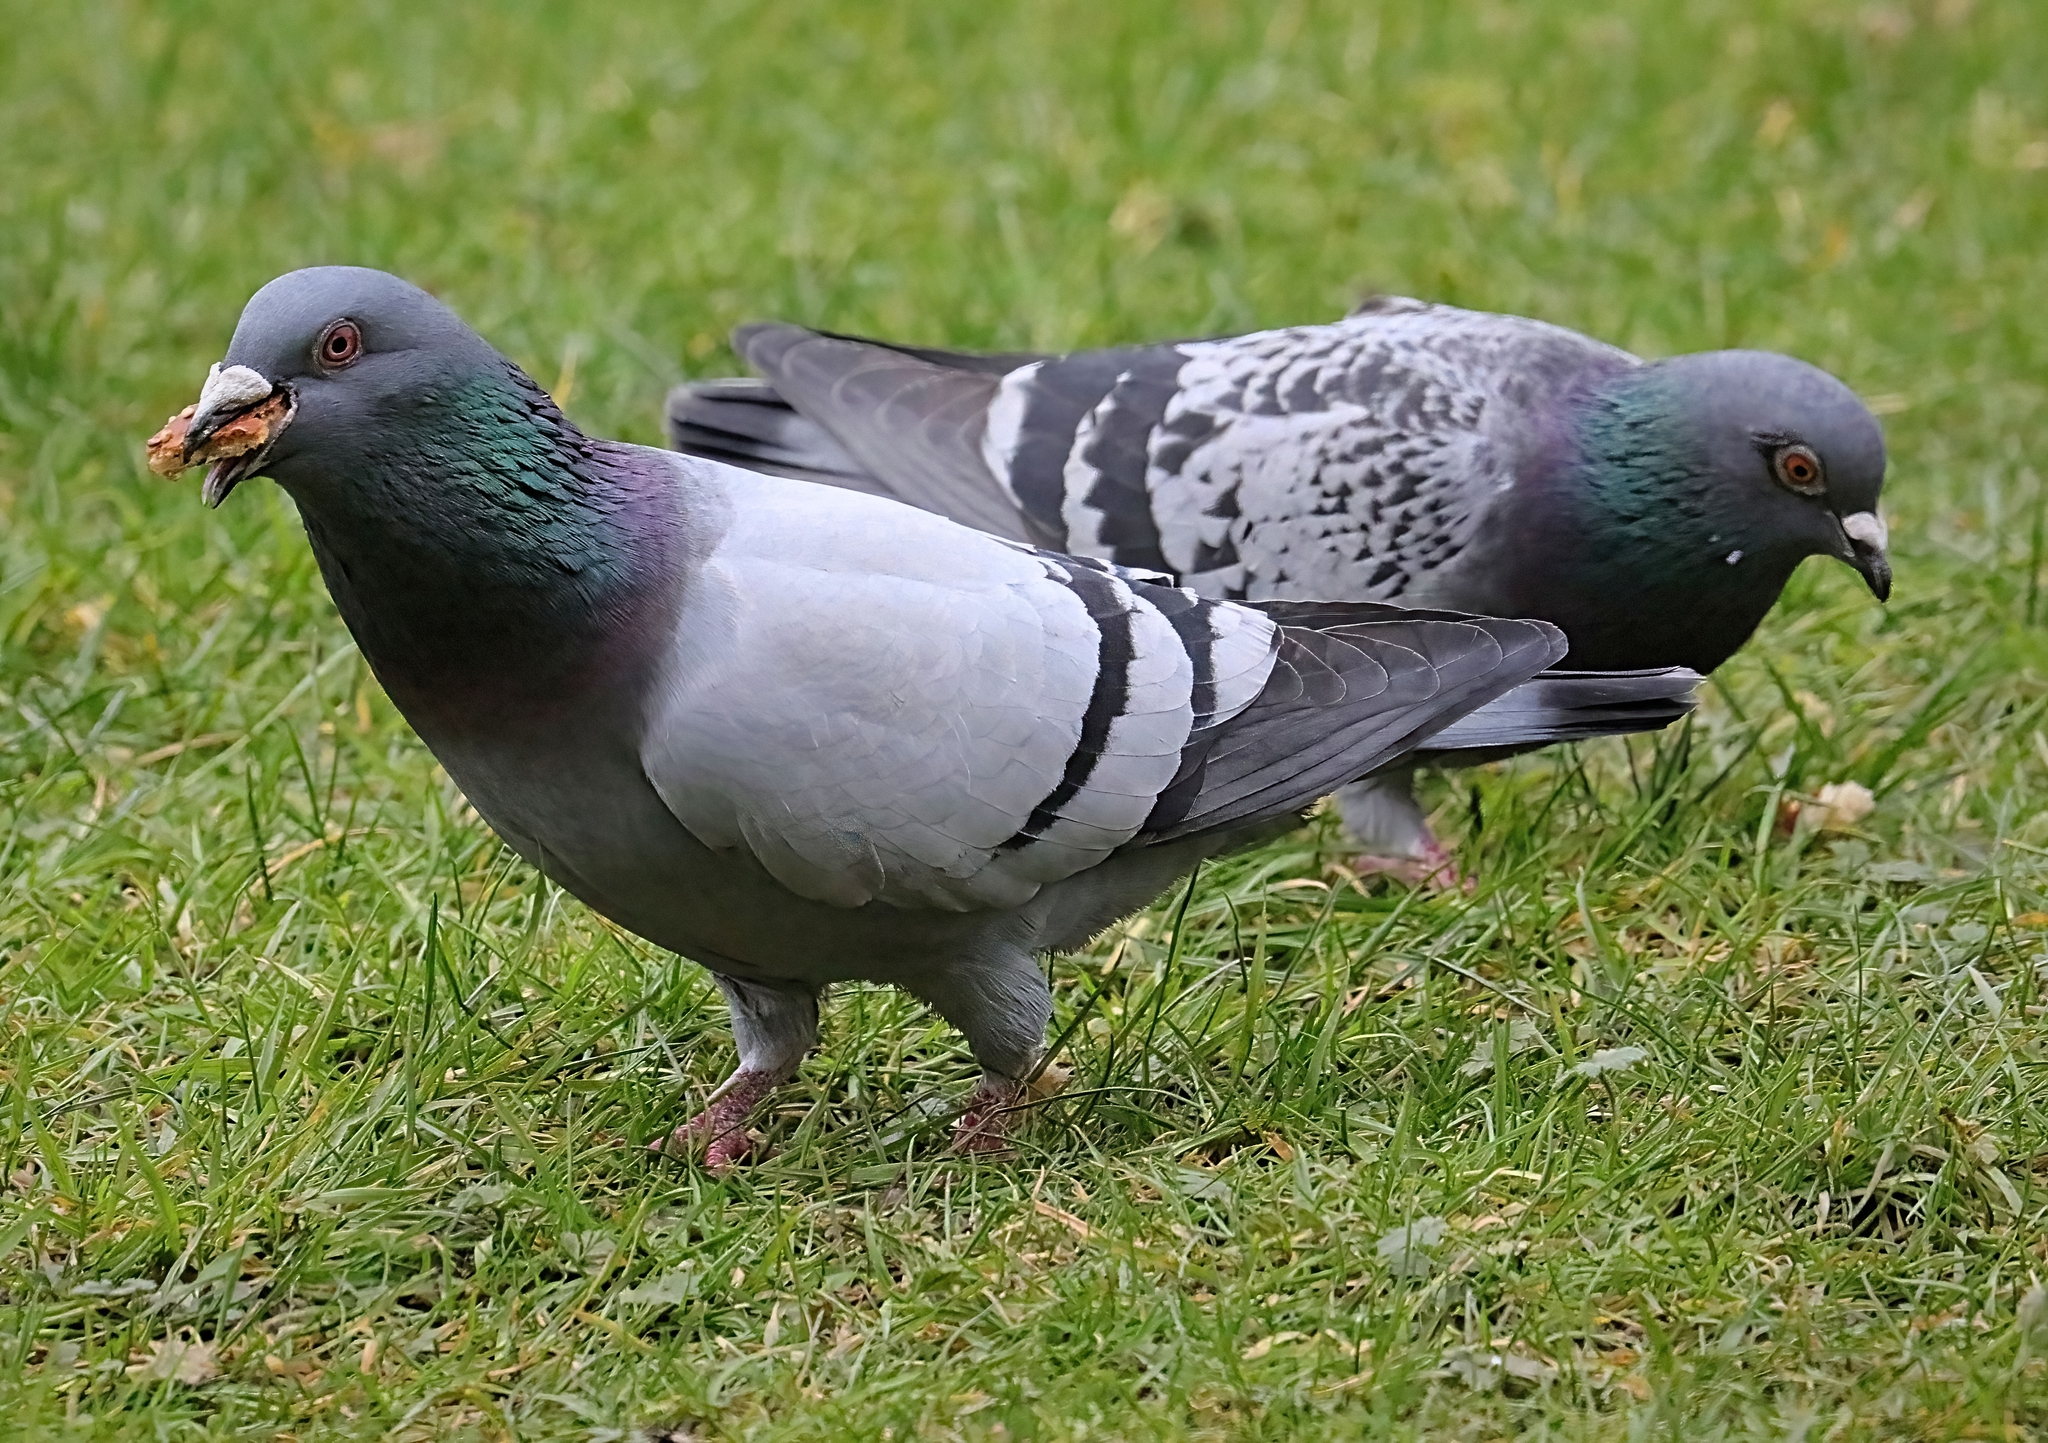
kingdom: Animalia
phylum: Chordata
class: Aves
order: Columbiformes
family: Columbidae
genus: Columba
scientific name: Columba livia
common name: Rock pigeon
